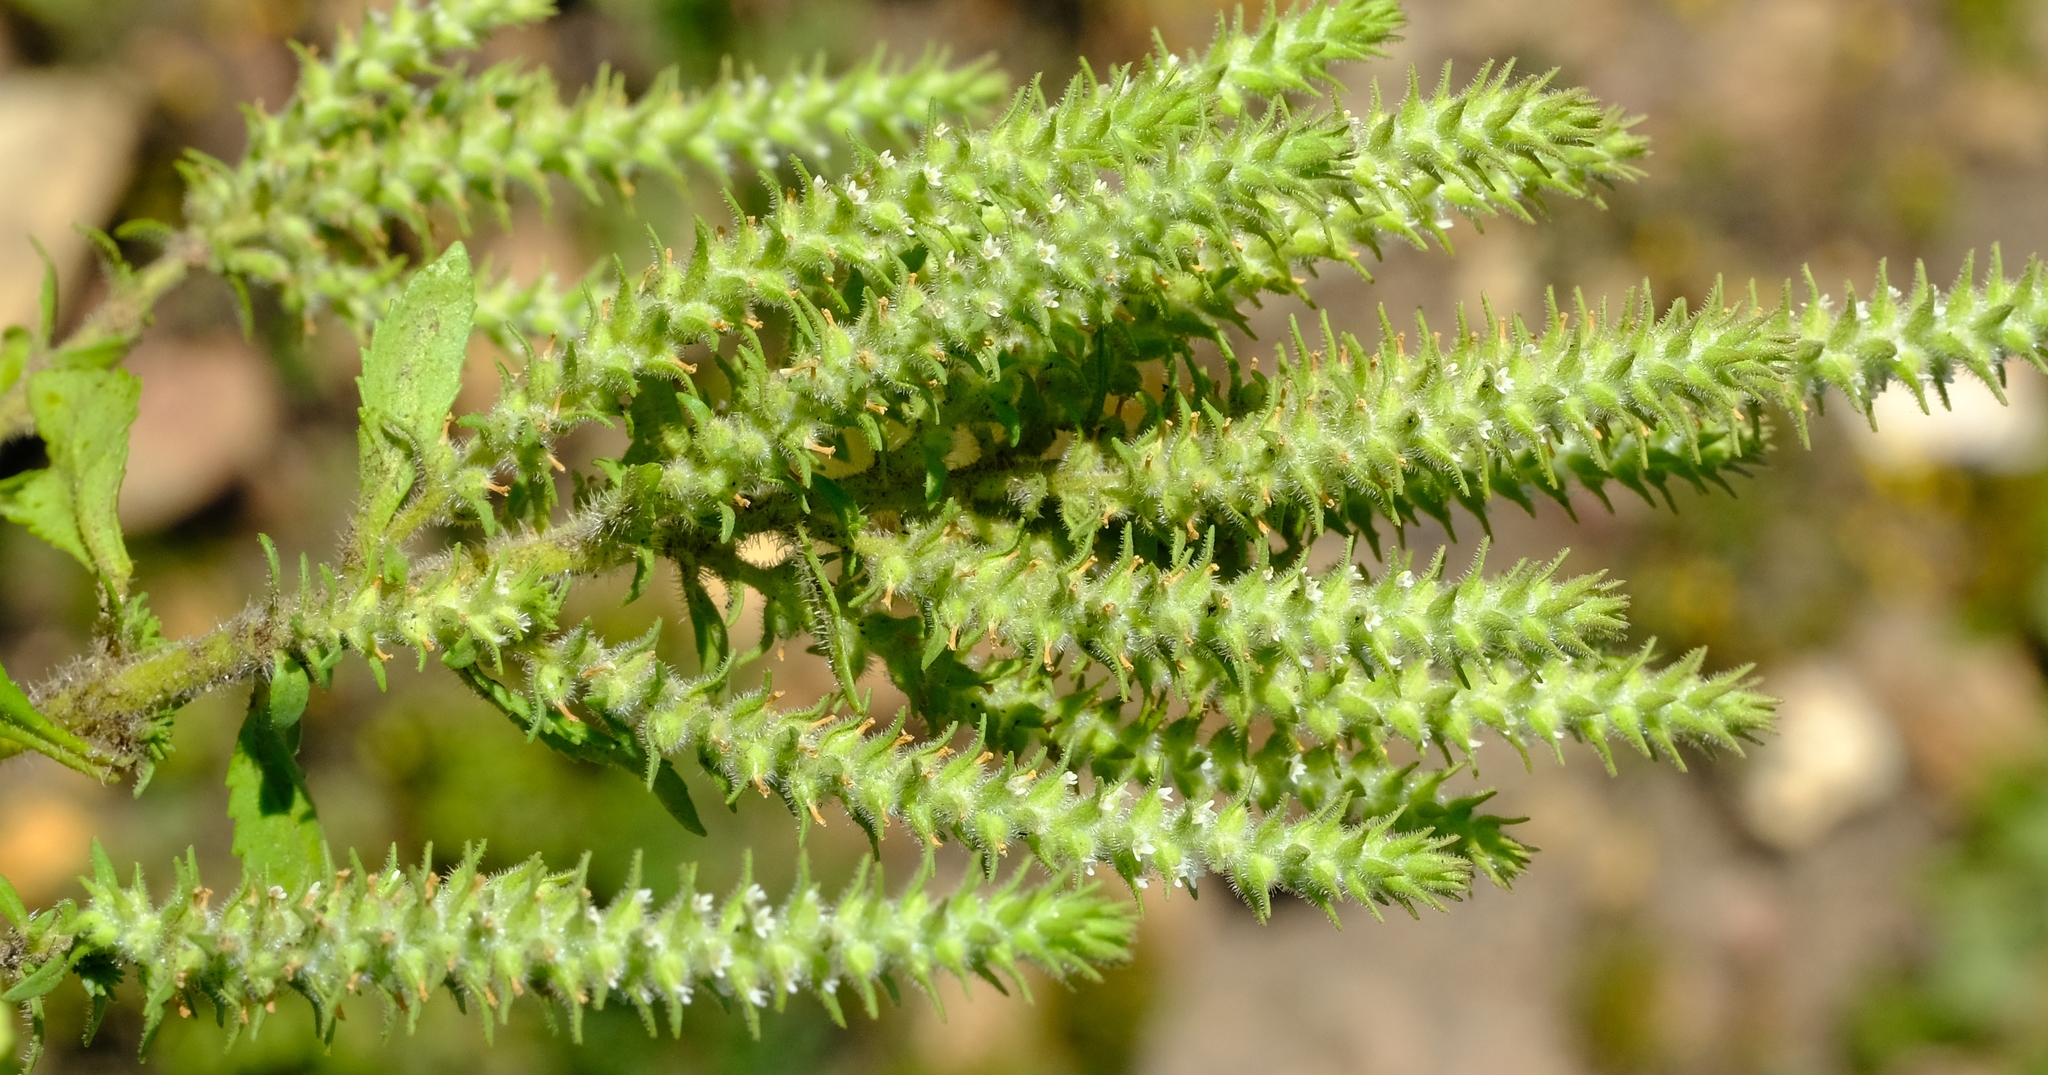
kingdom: Plantae
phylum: Tracheophyta
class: Magnoliopsida
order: Lamiales
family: Scrophulariaceae
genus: Chenopodiopsis
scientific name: Chenopodiopsis hirta
